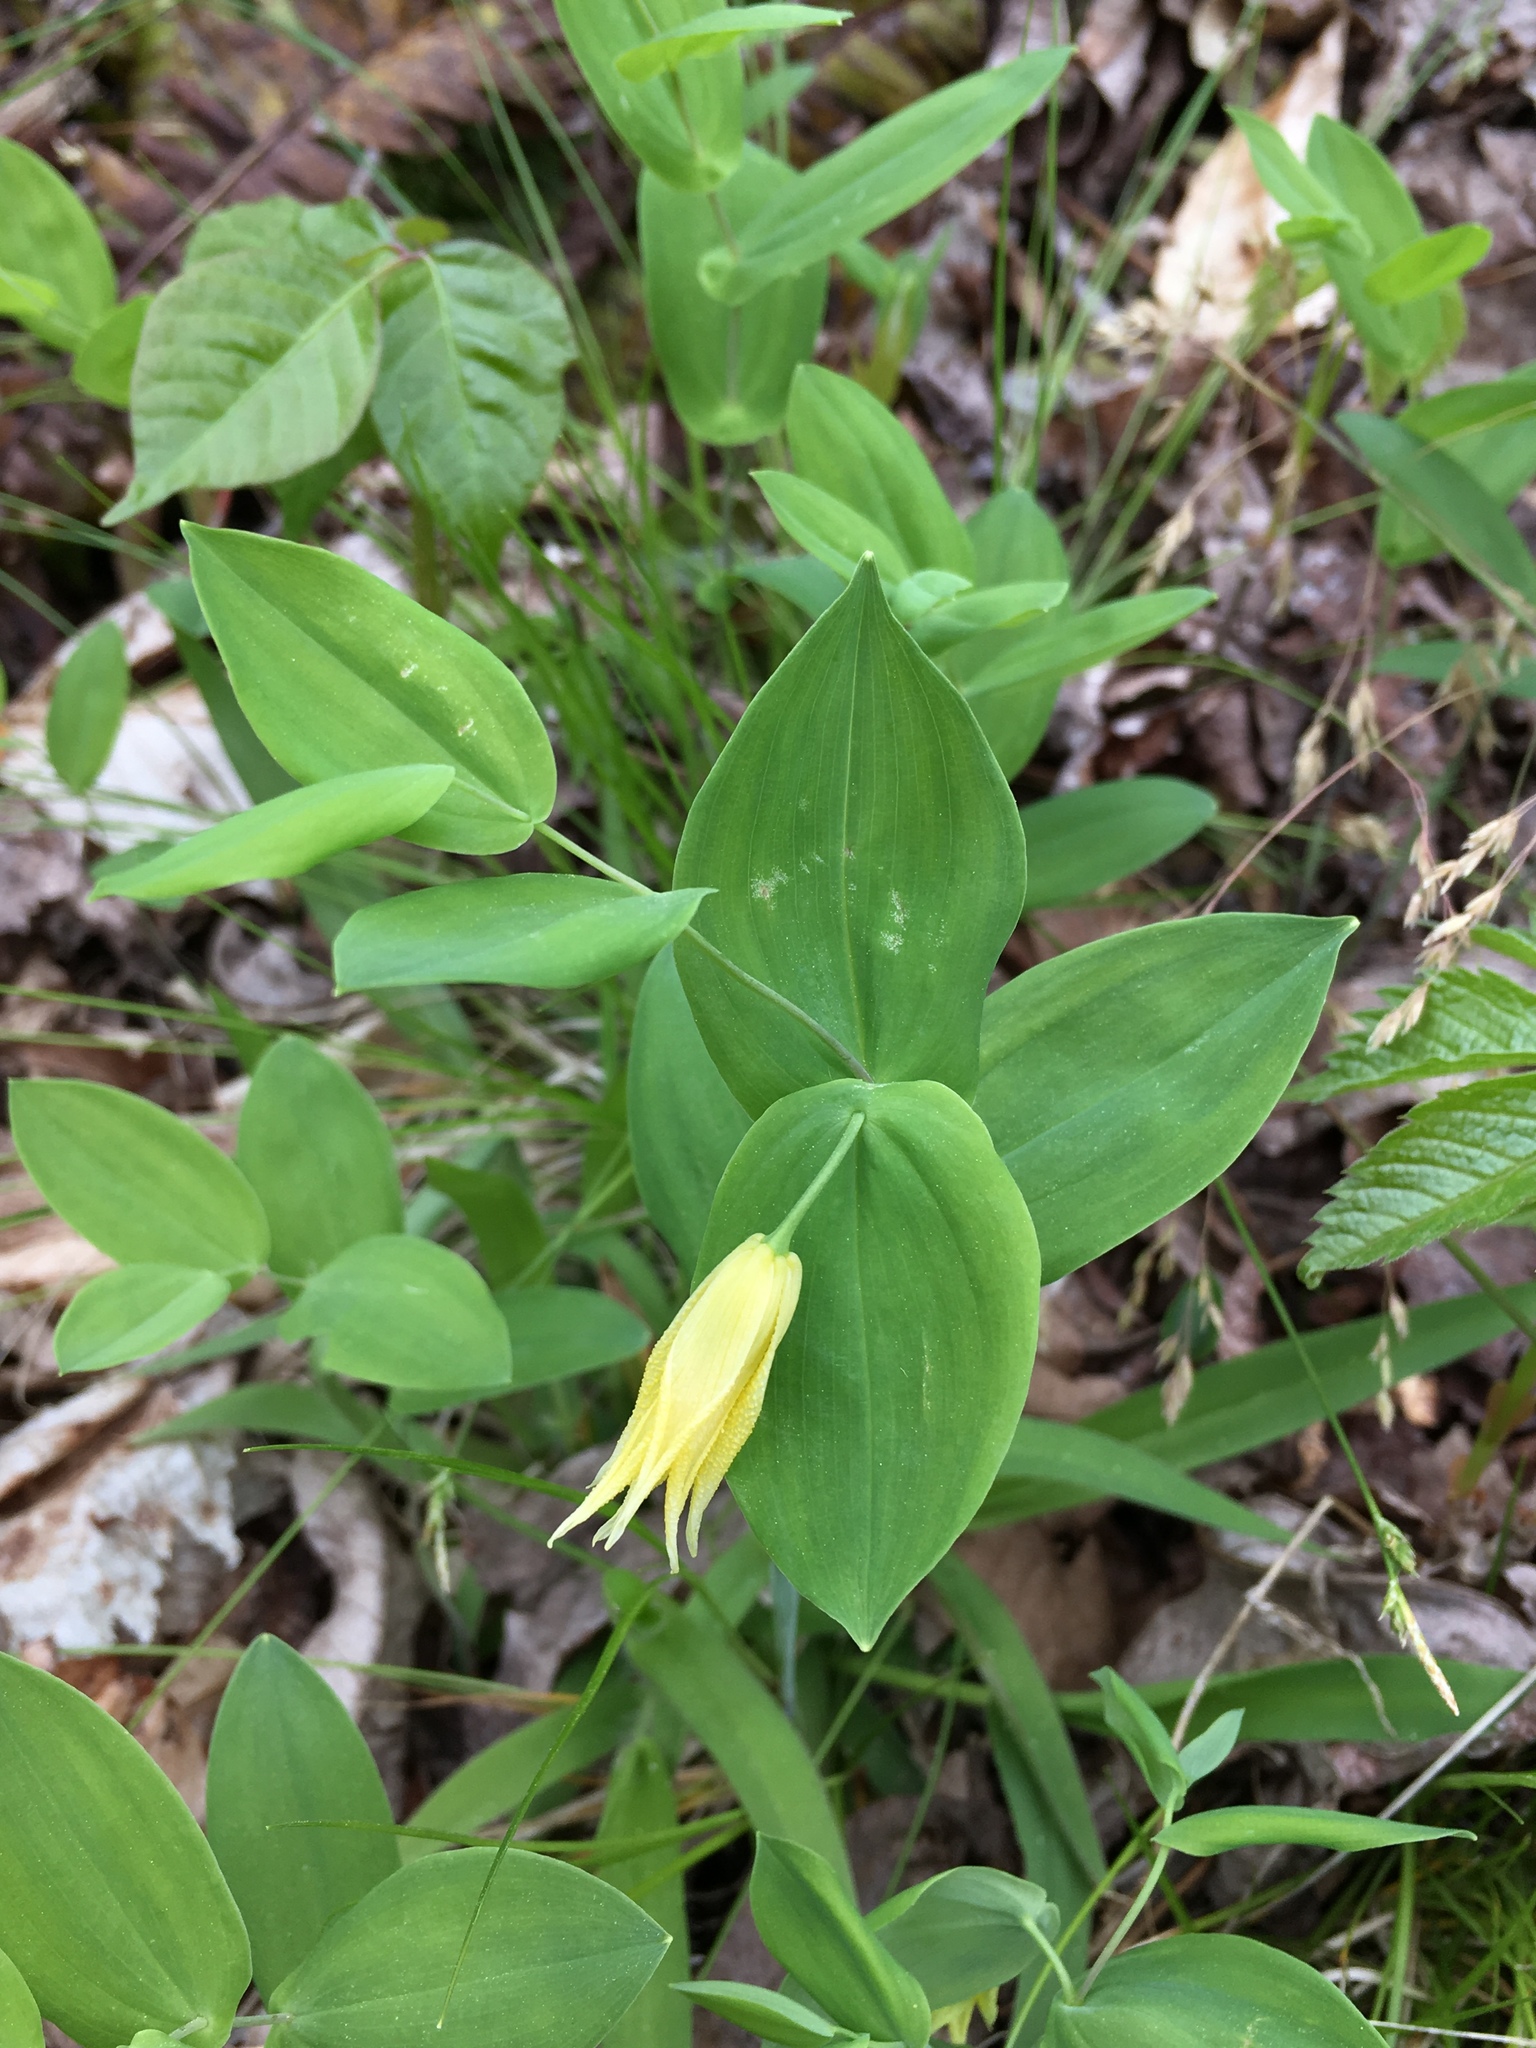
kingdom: Plantae
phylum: Tracheophyta
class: Liliopsida
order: Liliales
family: Colchicaceae
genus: Uvularia
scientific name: Uvularia perfoliata
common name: Perfoliate bellwort
